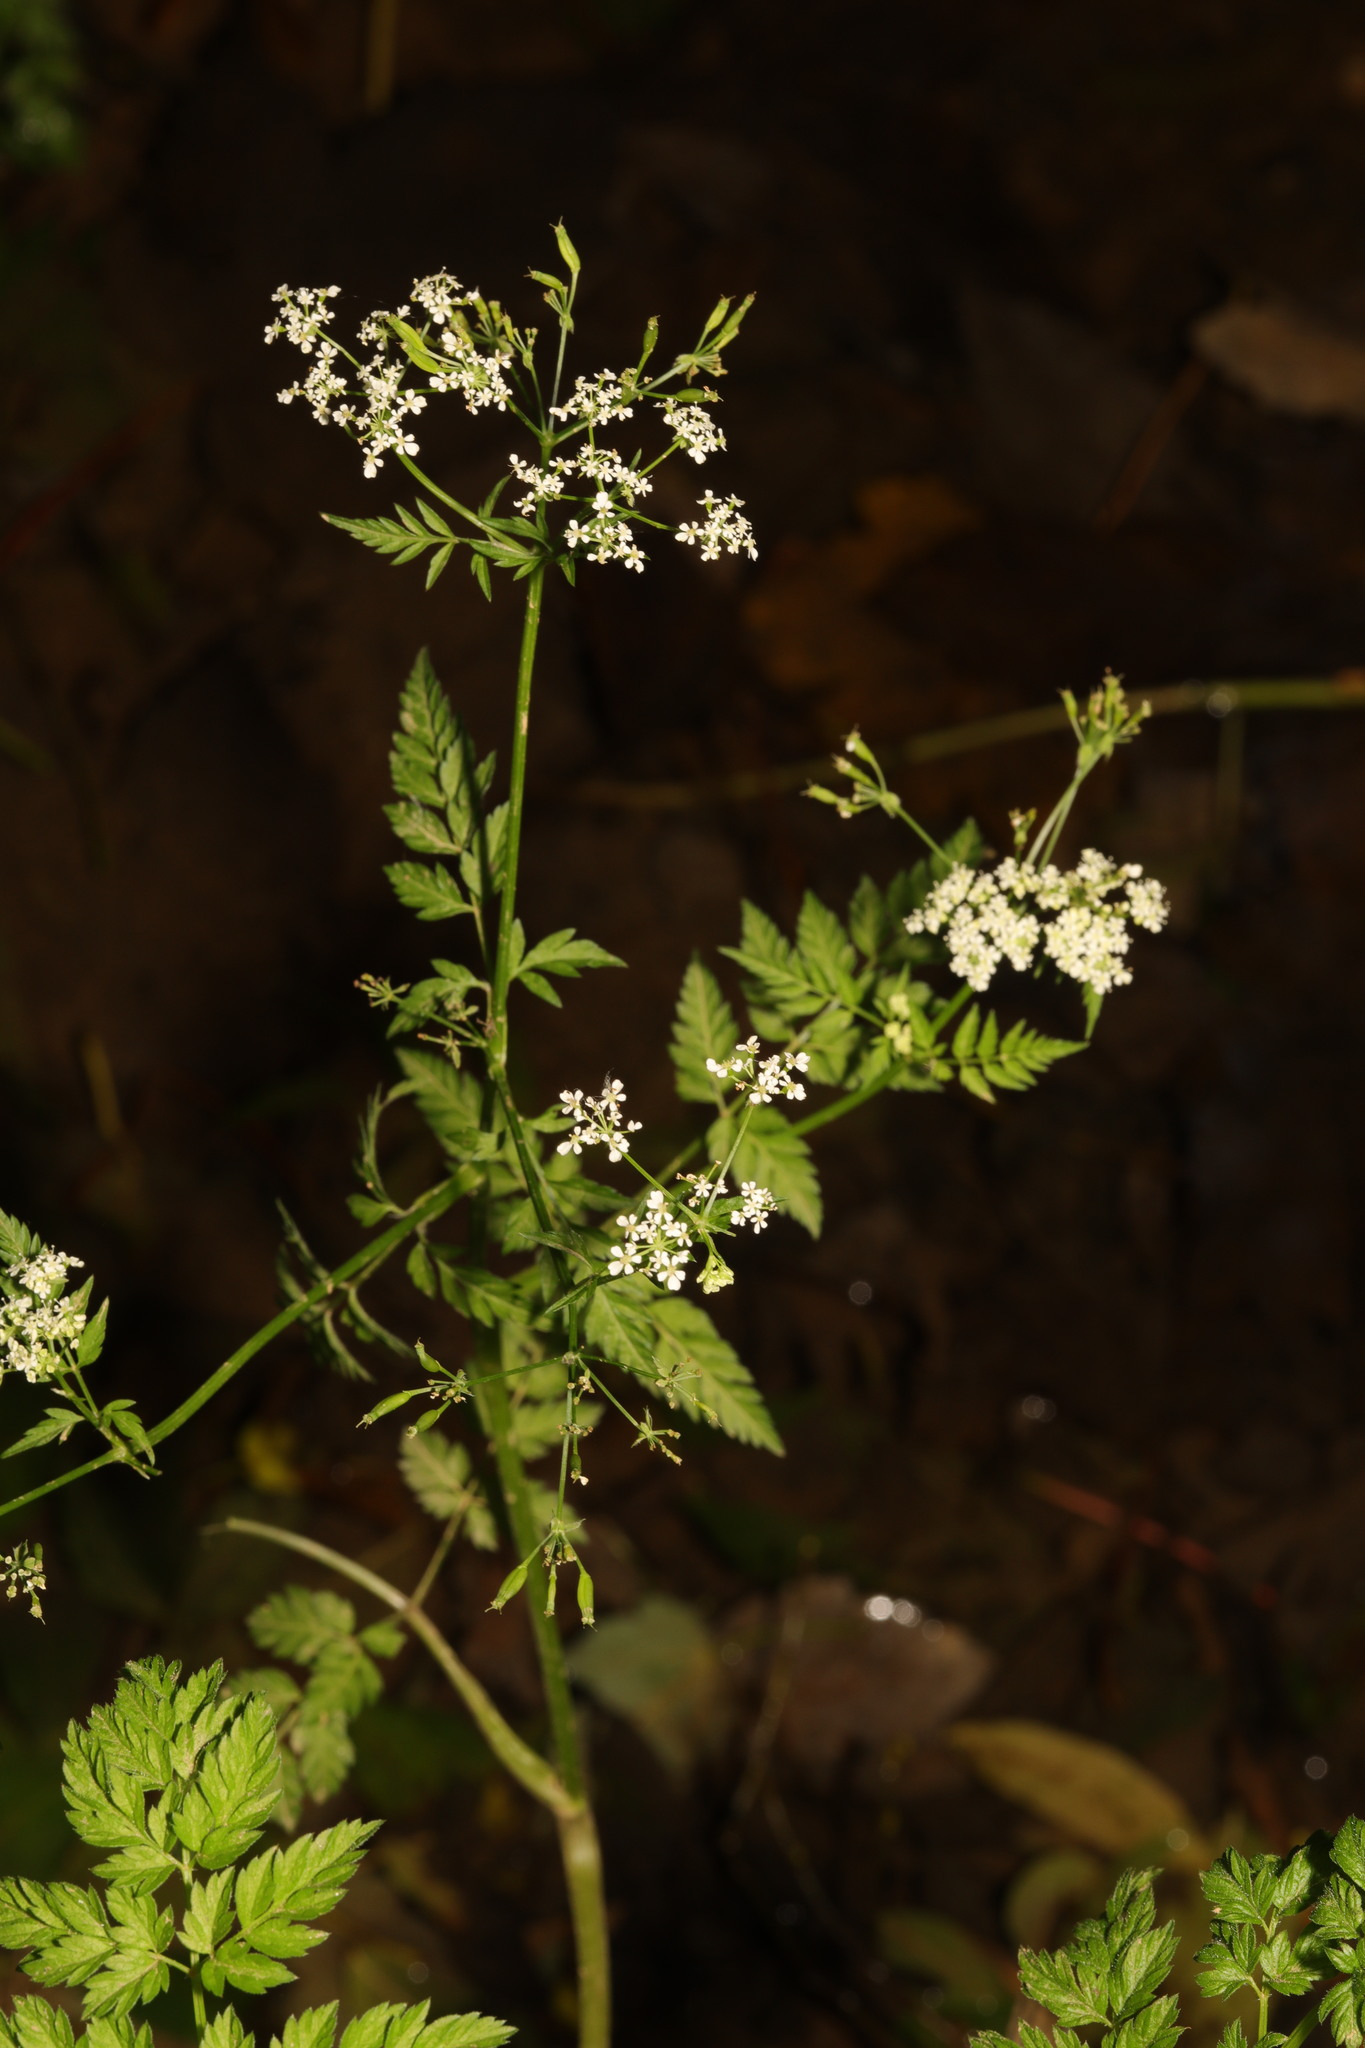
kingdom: Plantae
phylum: Tracheophyta
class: Magnoliopsida
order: Apiales
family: Apiaceae
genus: Torilis
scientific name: Torilis japonica
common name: Upright hedge-parsley
